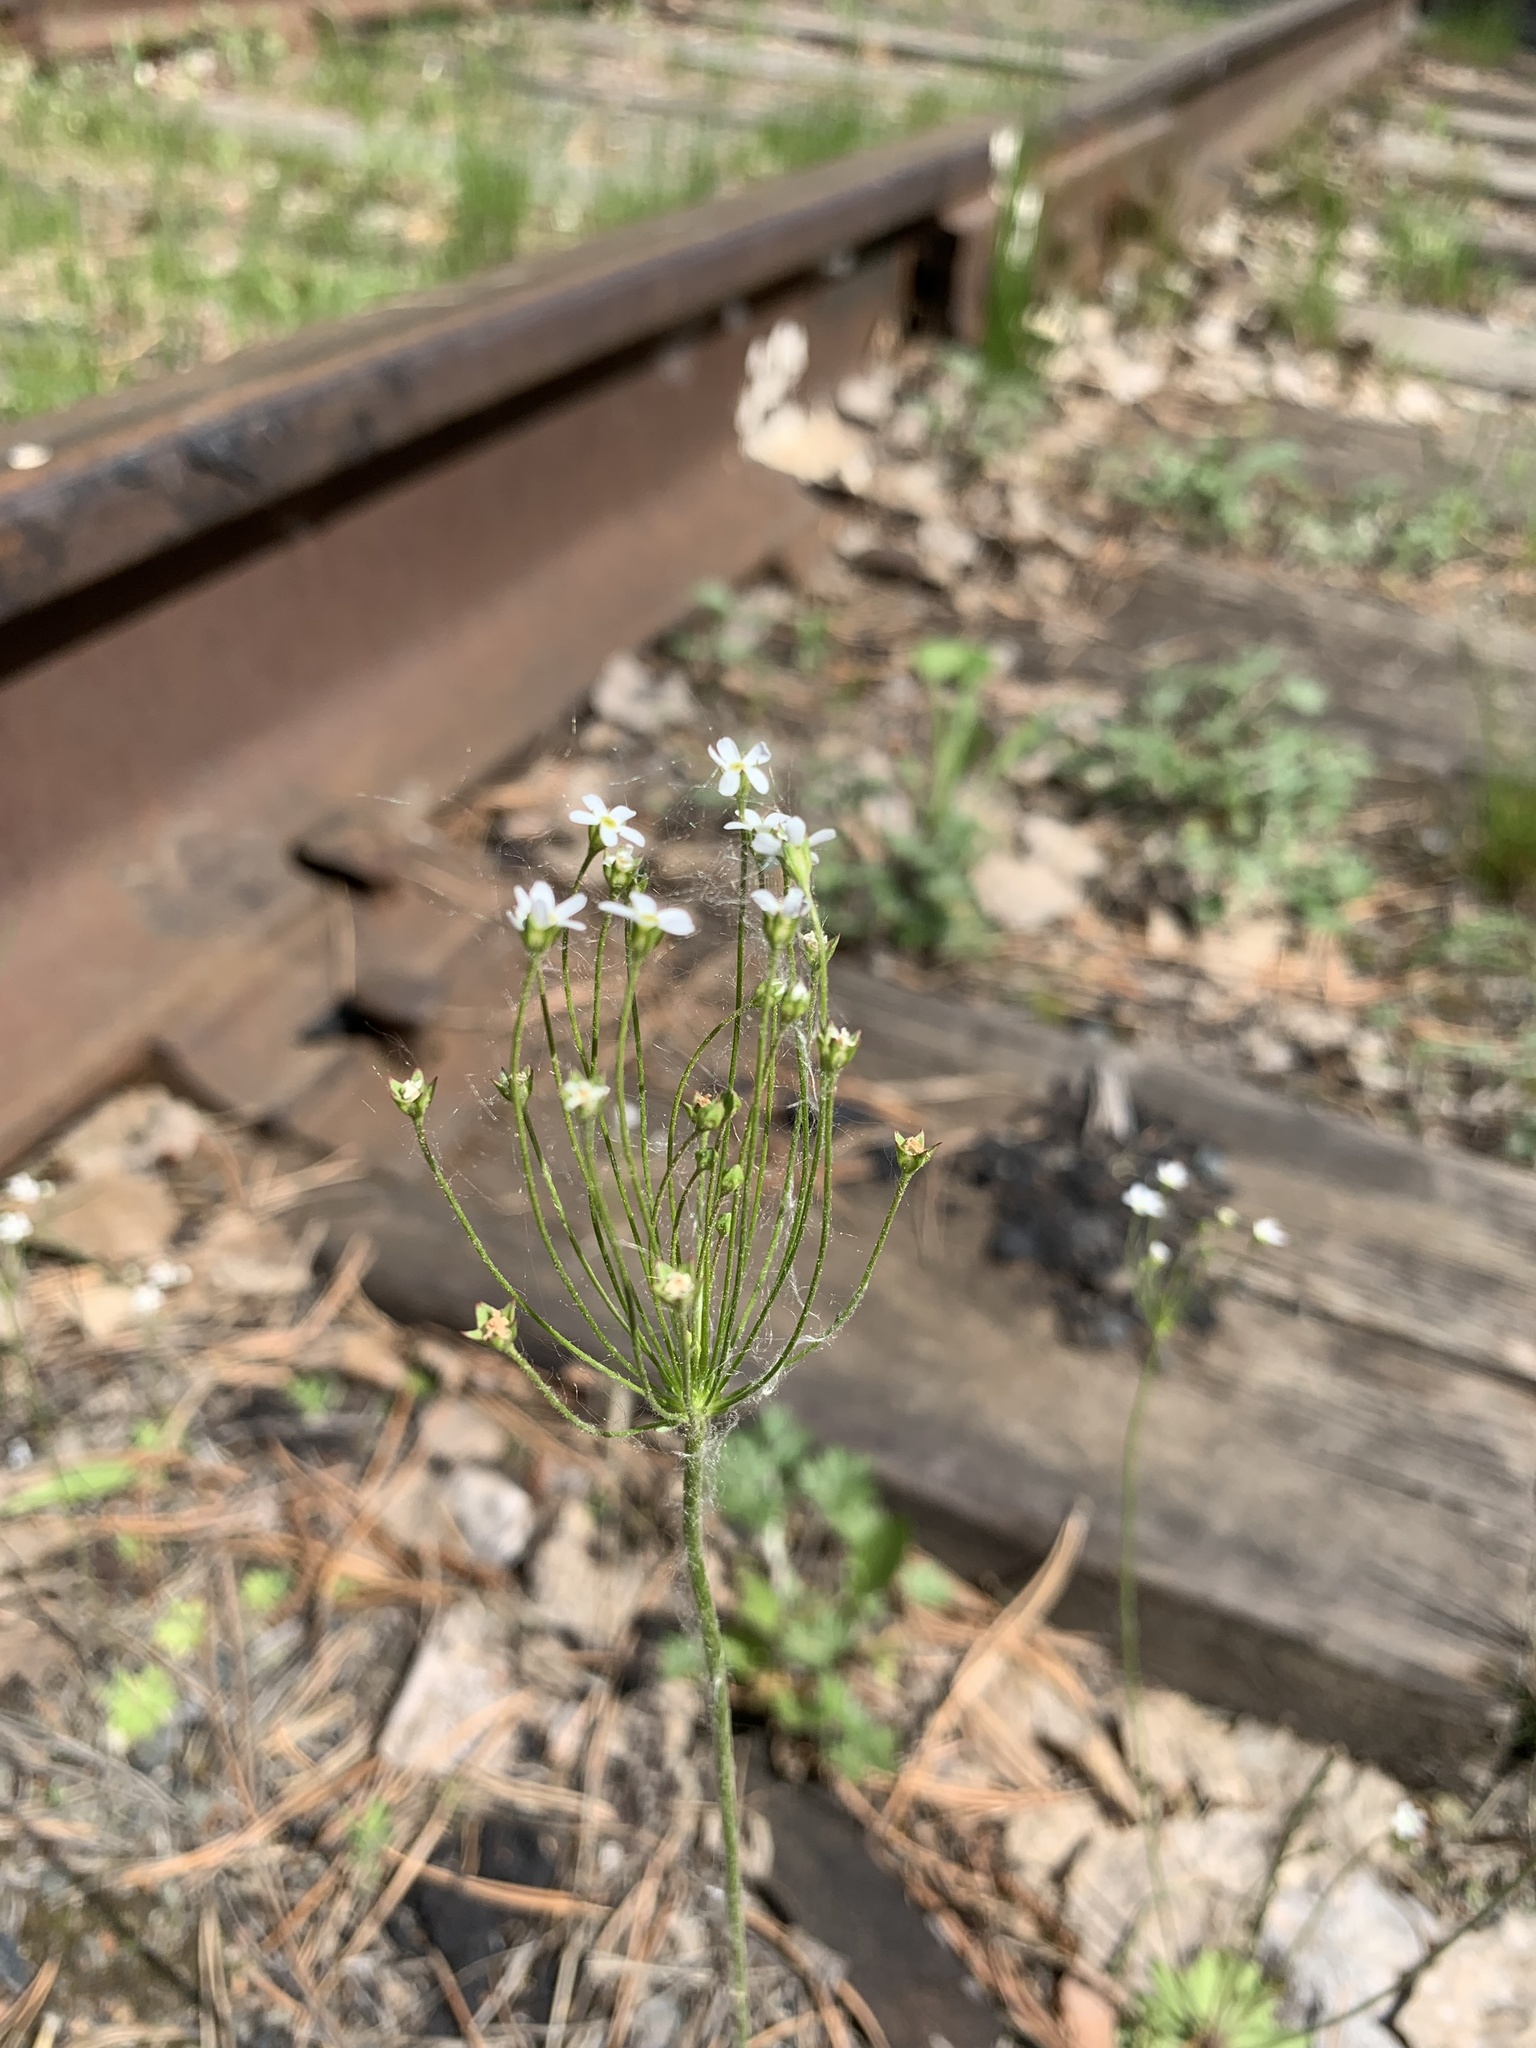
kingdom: Plantae
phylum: Tracheophyta
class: Magnoliopsida
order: Ericales
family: Primulaceae
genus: Androsace
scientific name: Androsace septentrionalis
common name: Hairy northern fairy-candelabra
